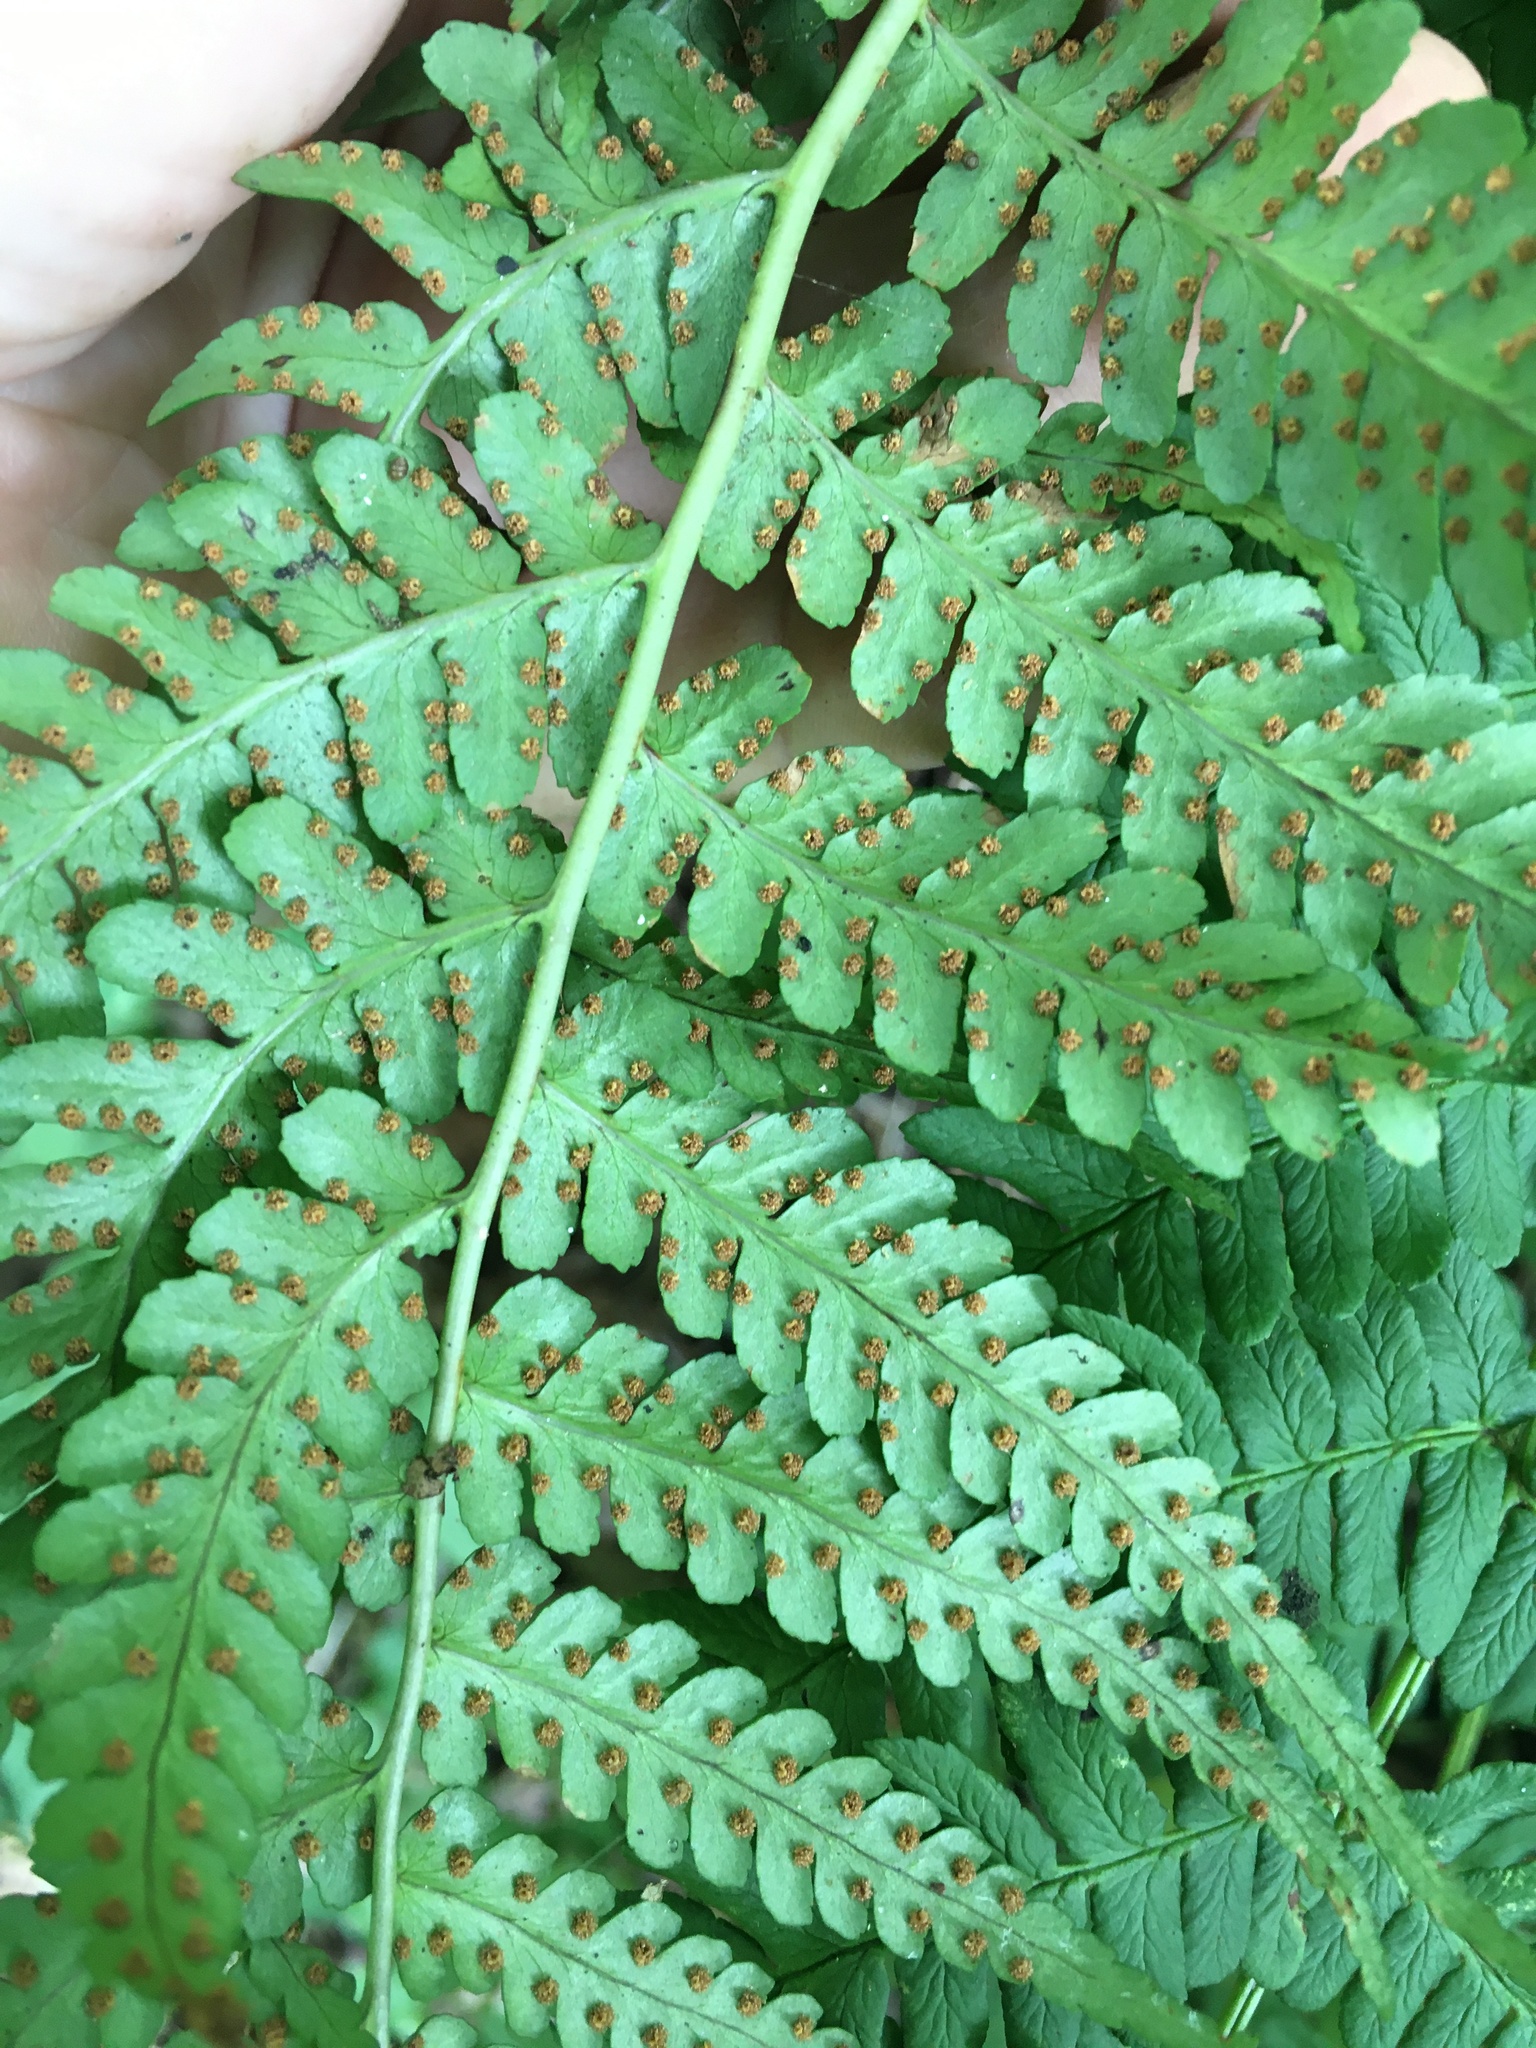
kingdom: Plantae
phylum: Tracheophyta
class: Polypodiopsida
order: Polypodiales
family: Dryopteridaceae
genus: Dryopteris
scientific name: Dryopteris marginalis
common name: Marginal wood fern
